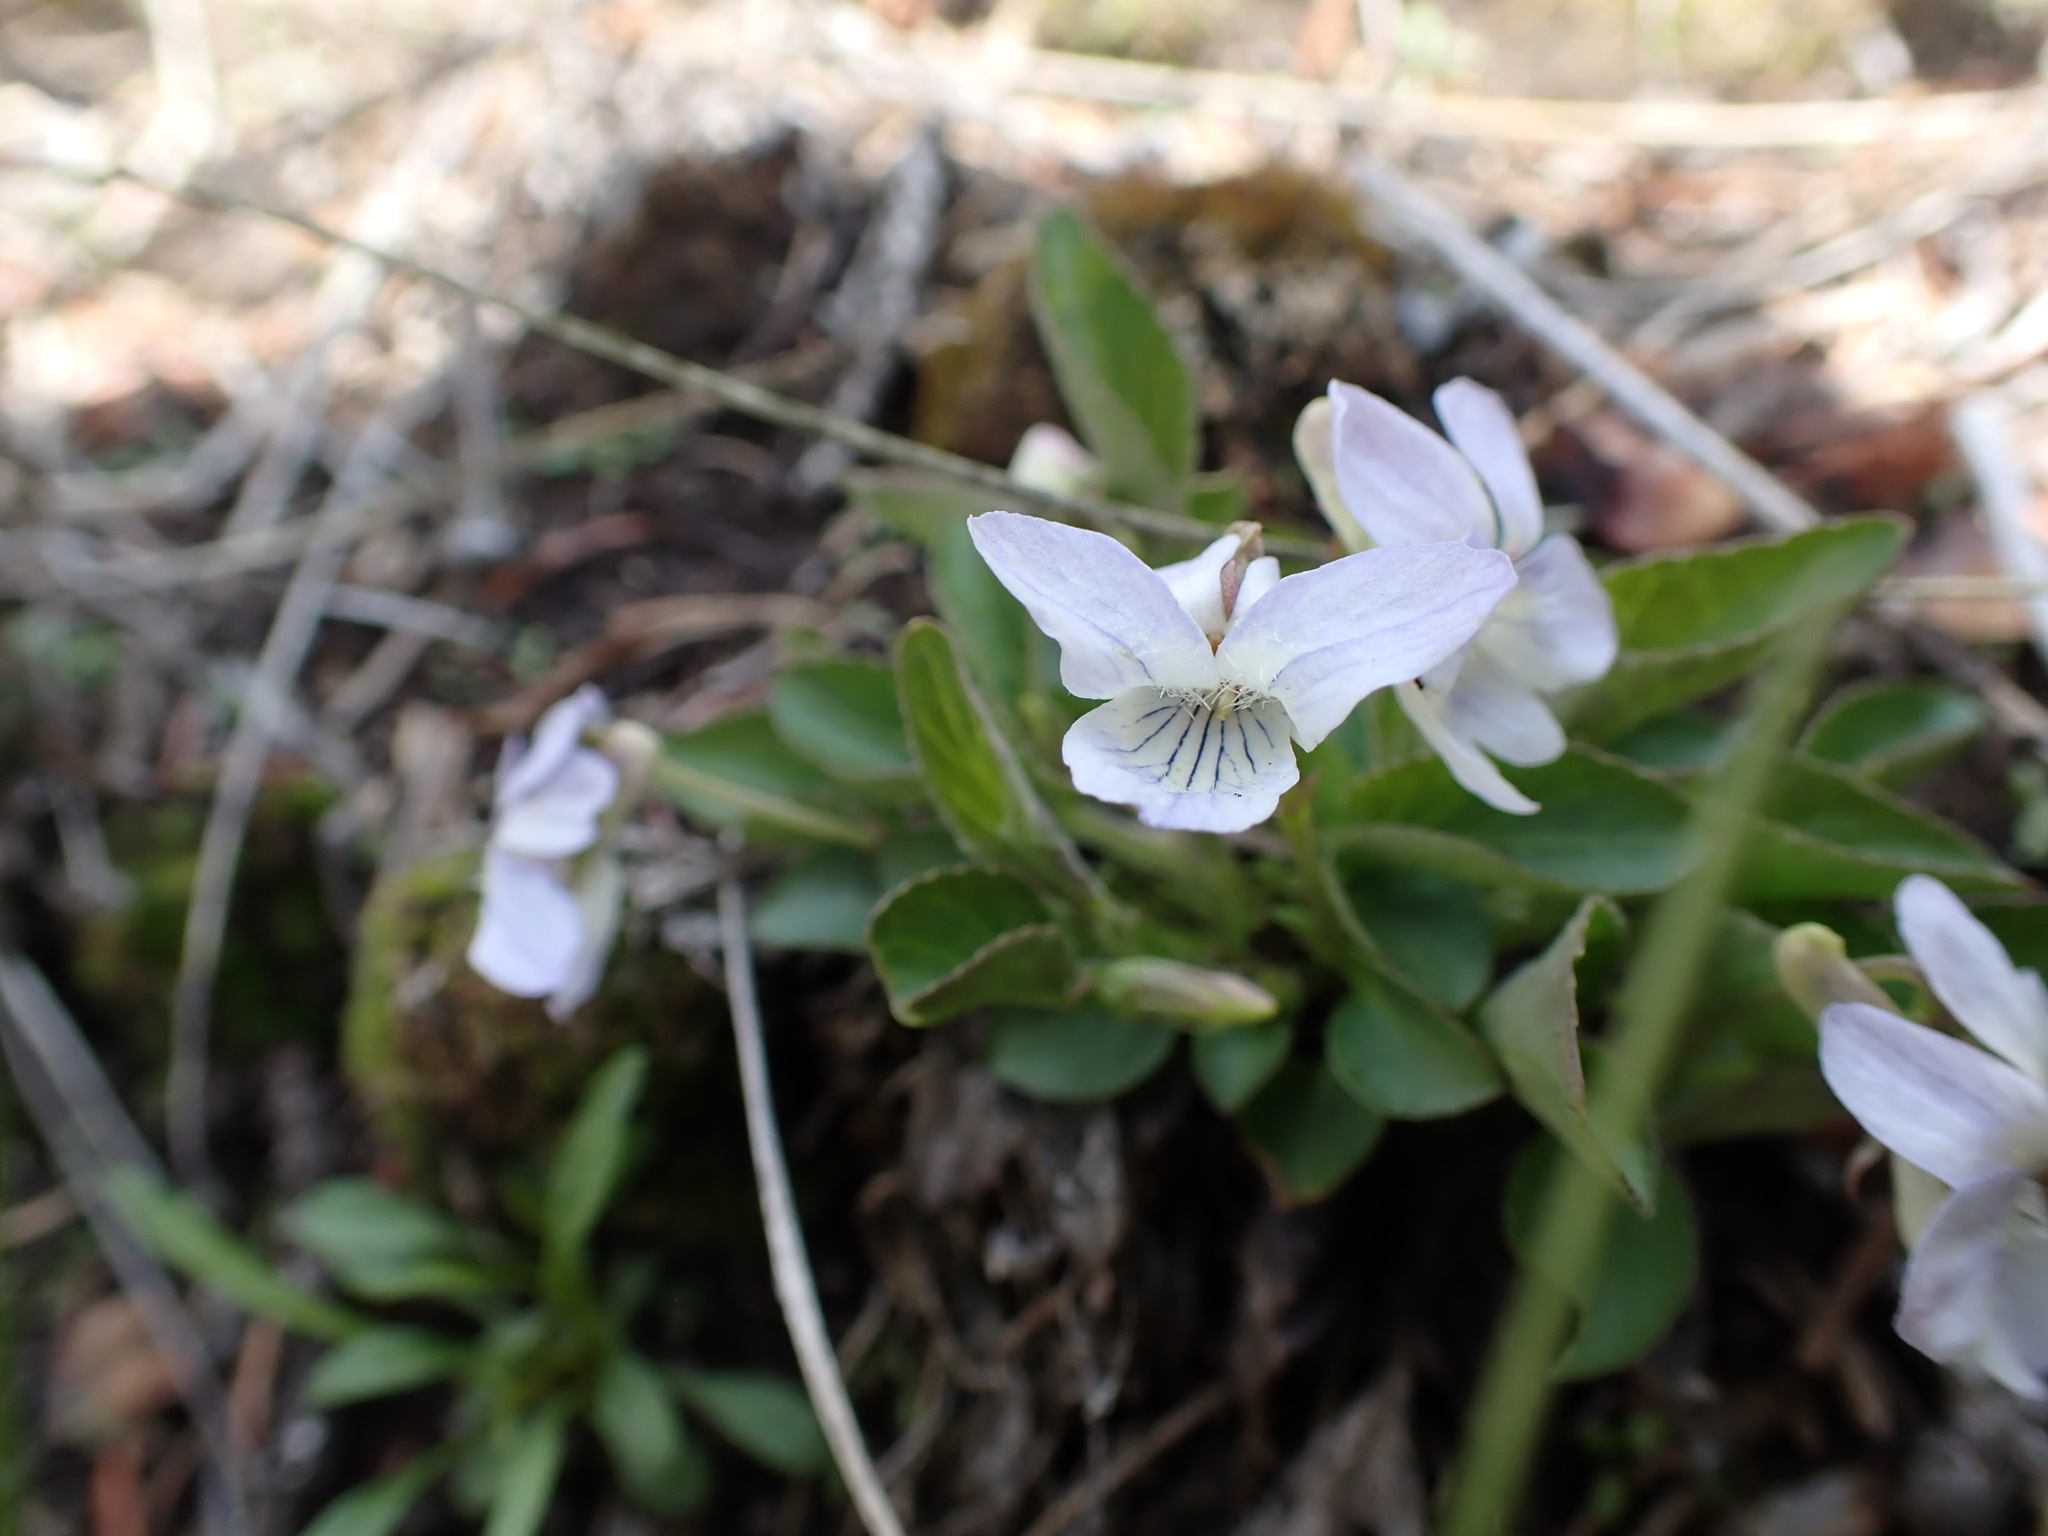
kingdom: Plantae
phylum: Tracheophyta
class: Magnoliopsida
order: Malpighiales
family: Violaceae
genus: Viola
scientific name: Viola adunca
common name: Sand violet
